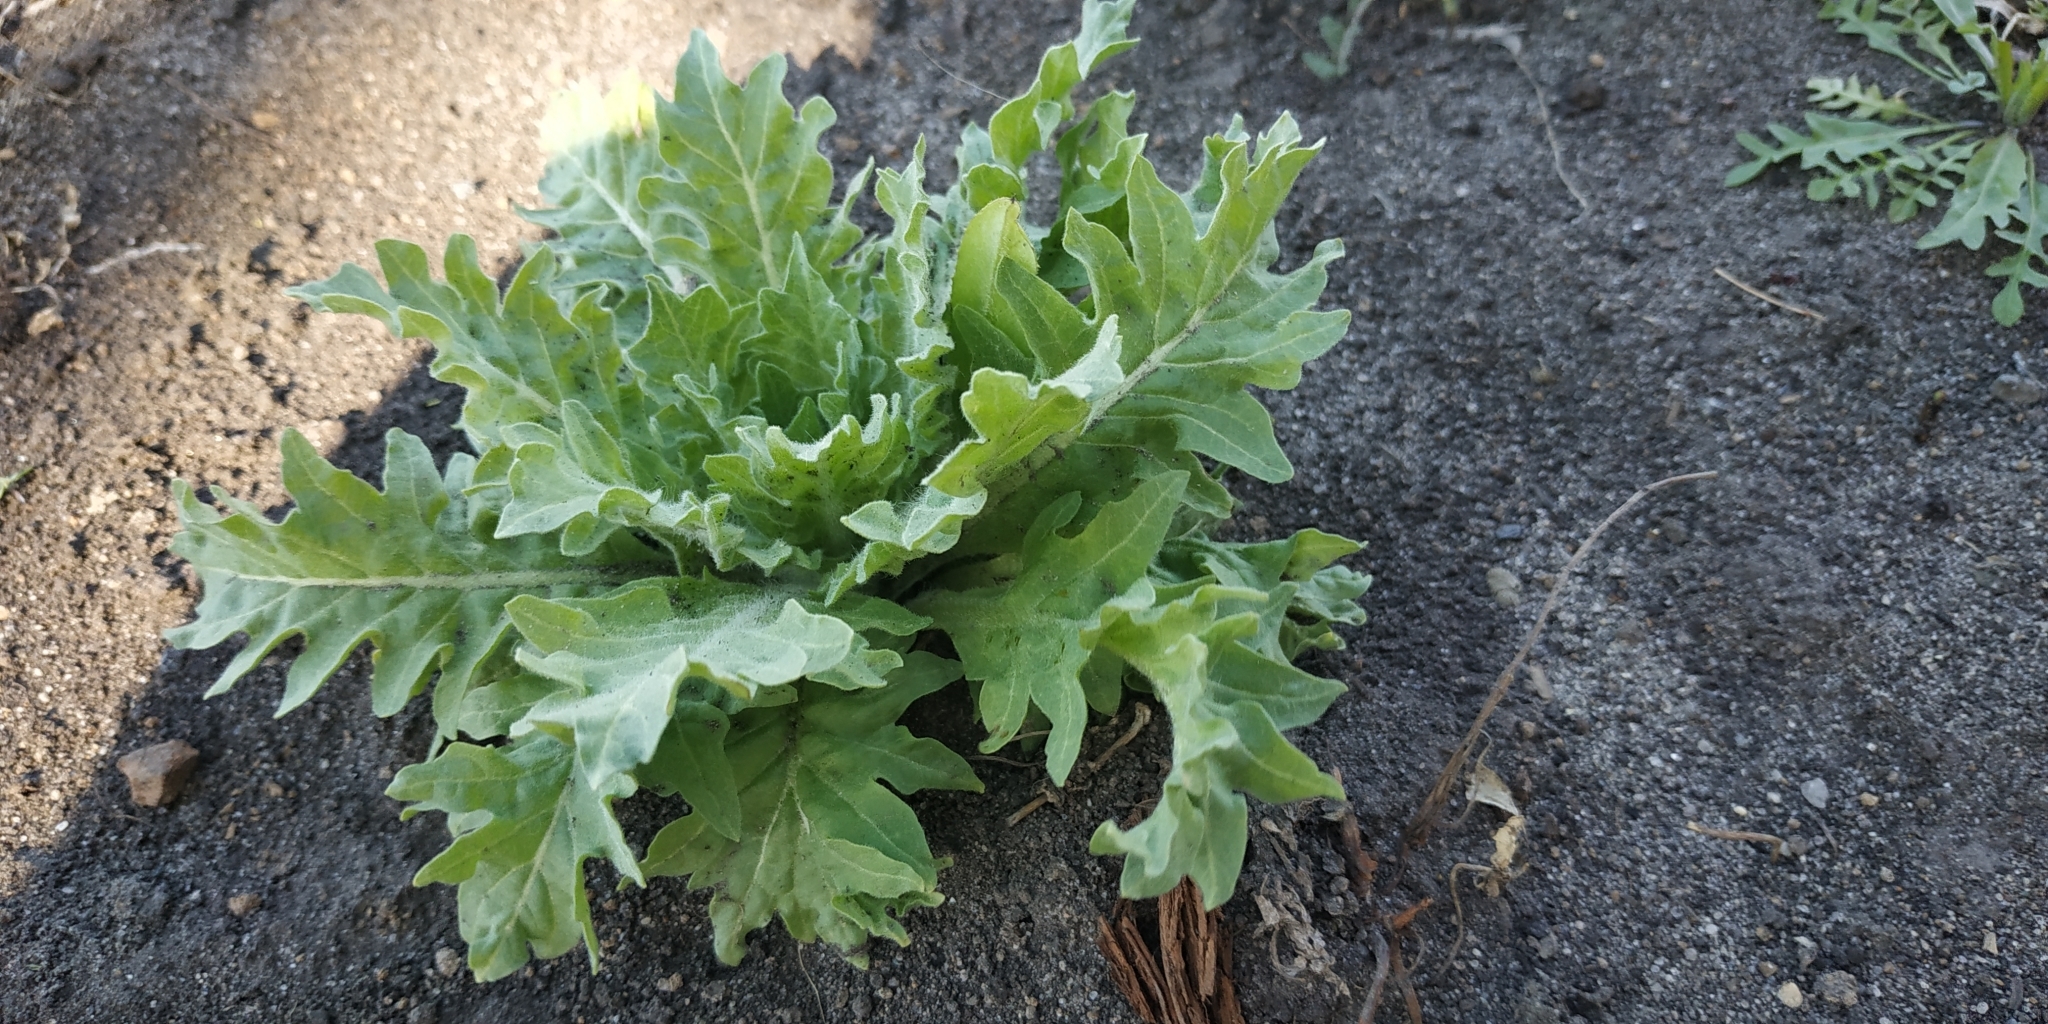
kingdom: Plantae
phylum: Tracheophyta
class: Magnoliopsida
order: Solanales
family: Solanaceae
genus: Hyoscyamus
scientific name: Hyoscyamus niger
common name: Henbane
